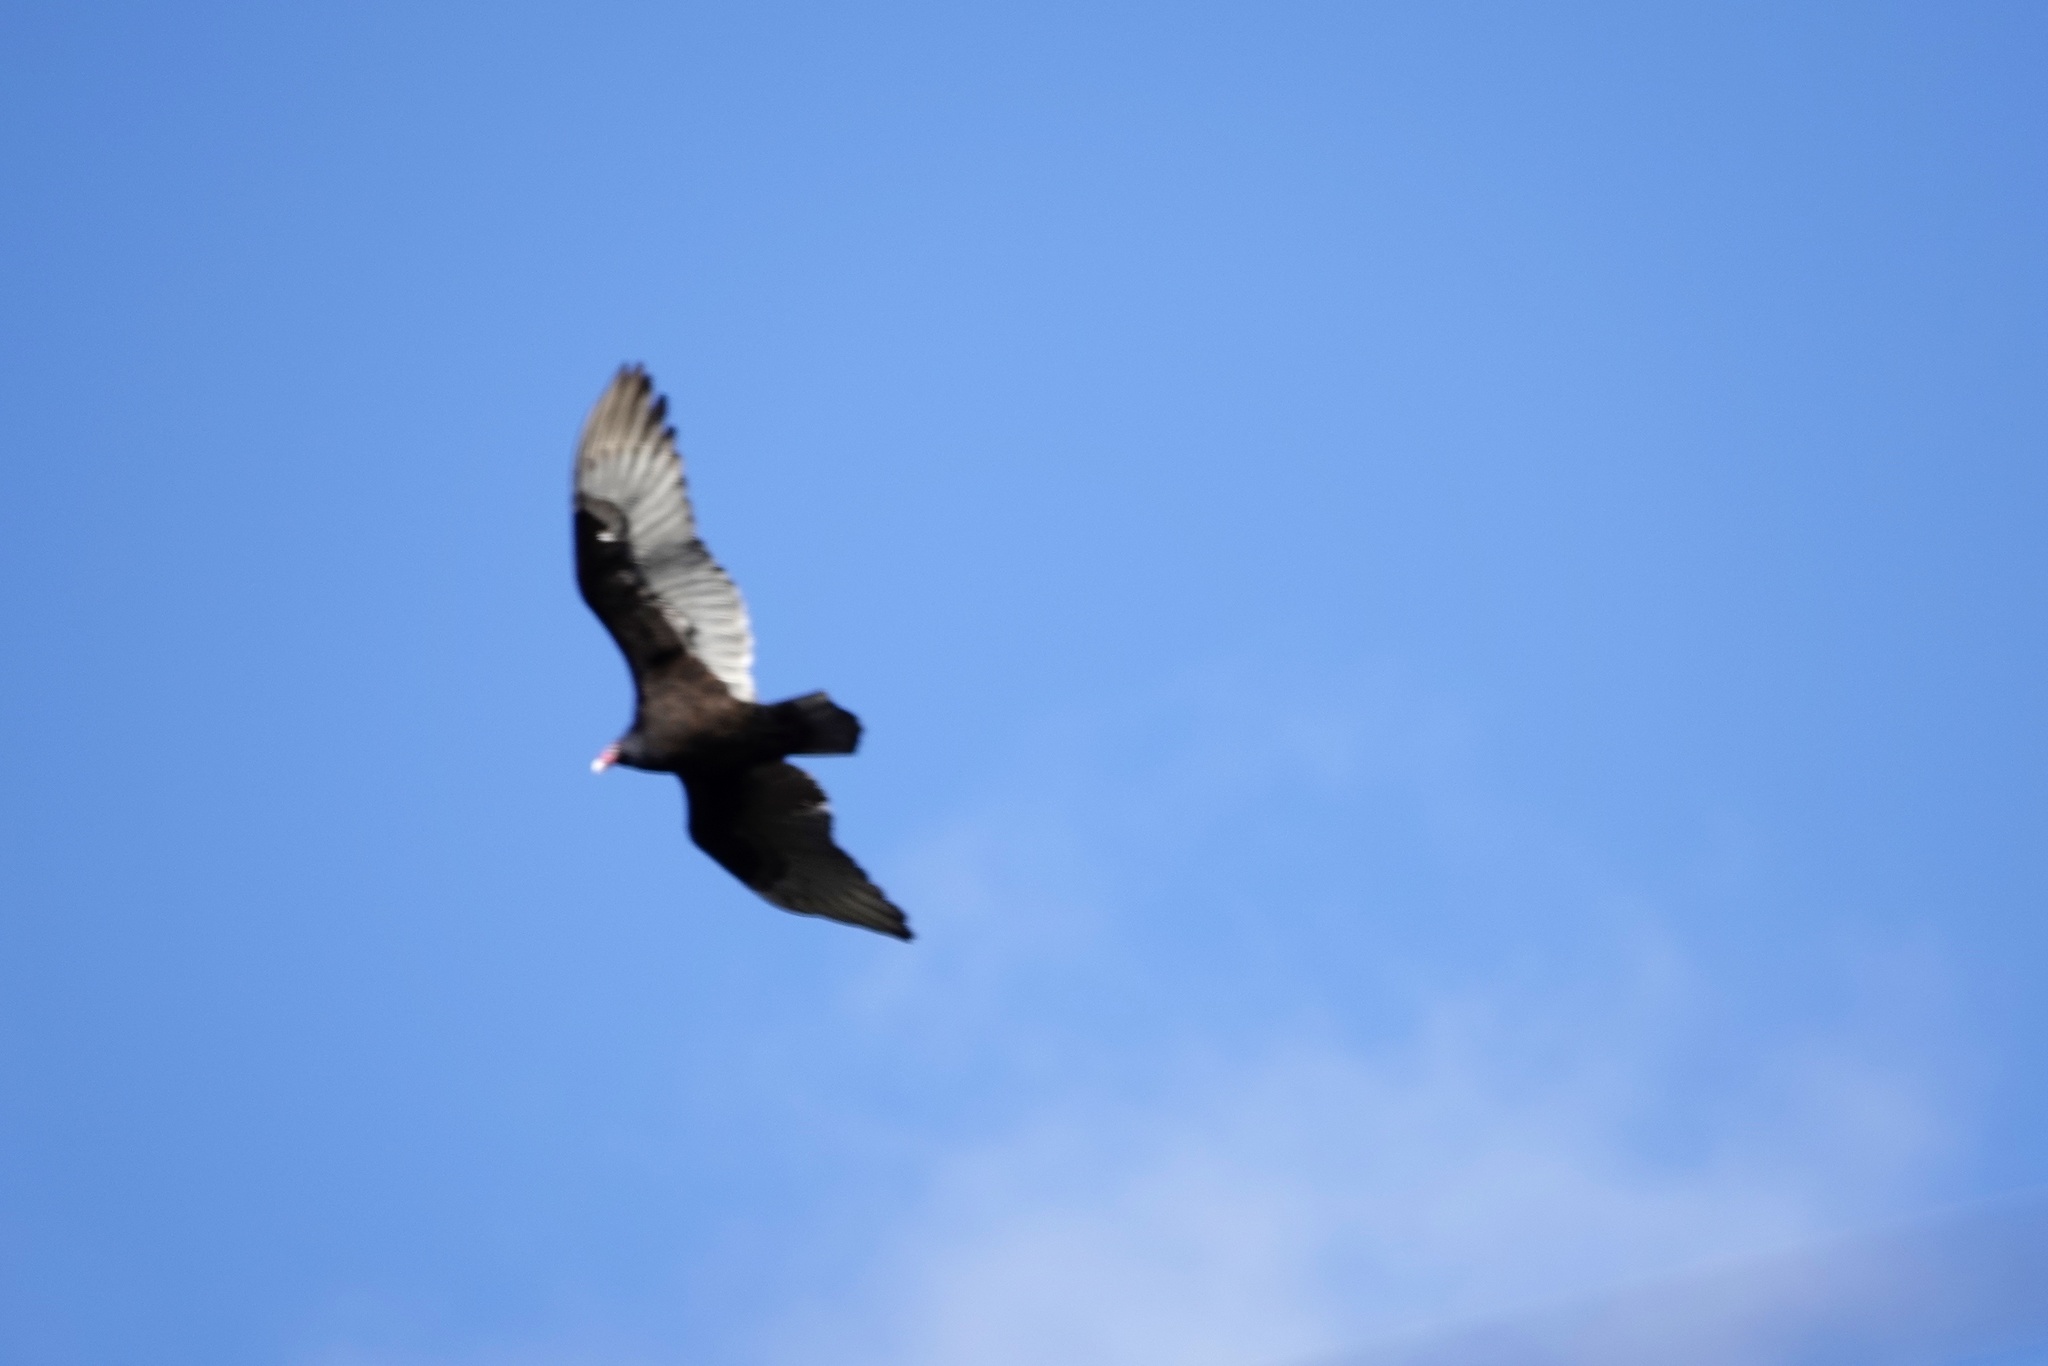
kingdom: Animalia
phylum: Chordata
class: Aves
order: Accipitriformes
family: Cathartidae
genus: Cathartes
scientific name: Cathartes aura
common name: Turkey vulture
